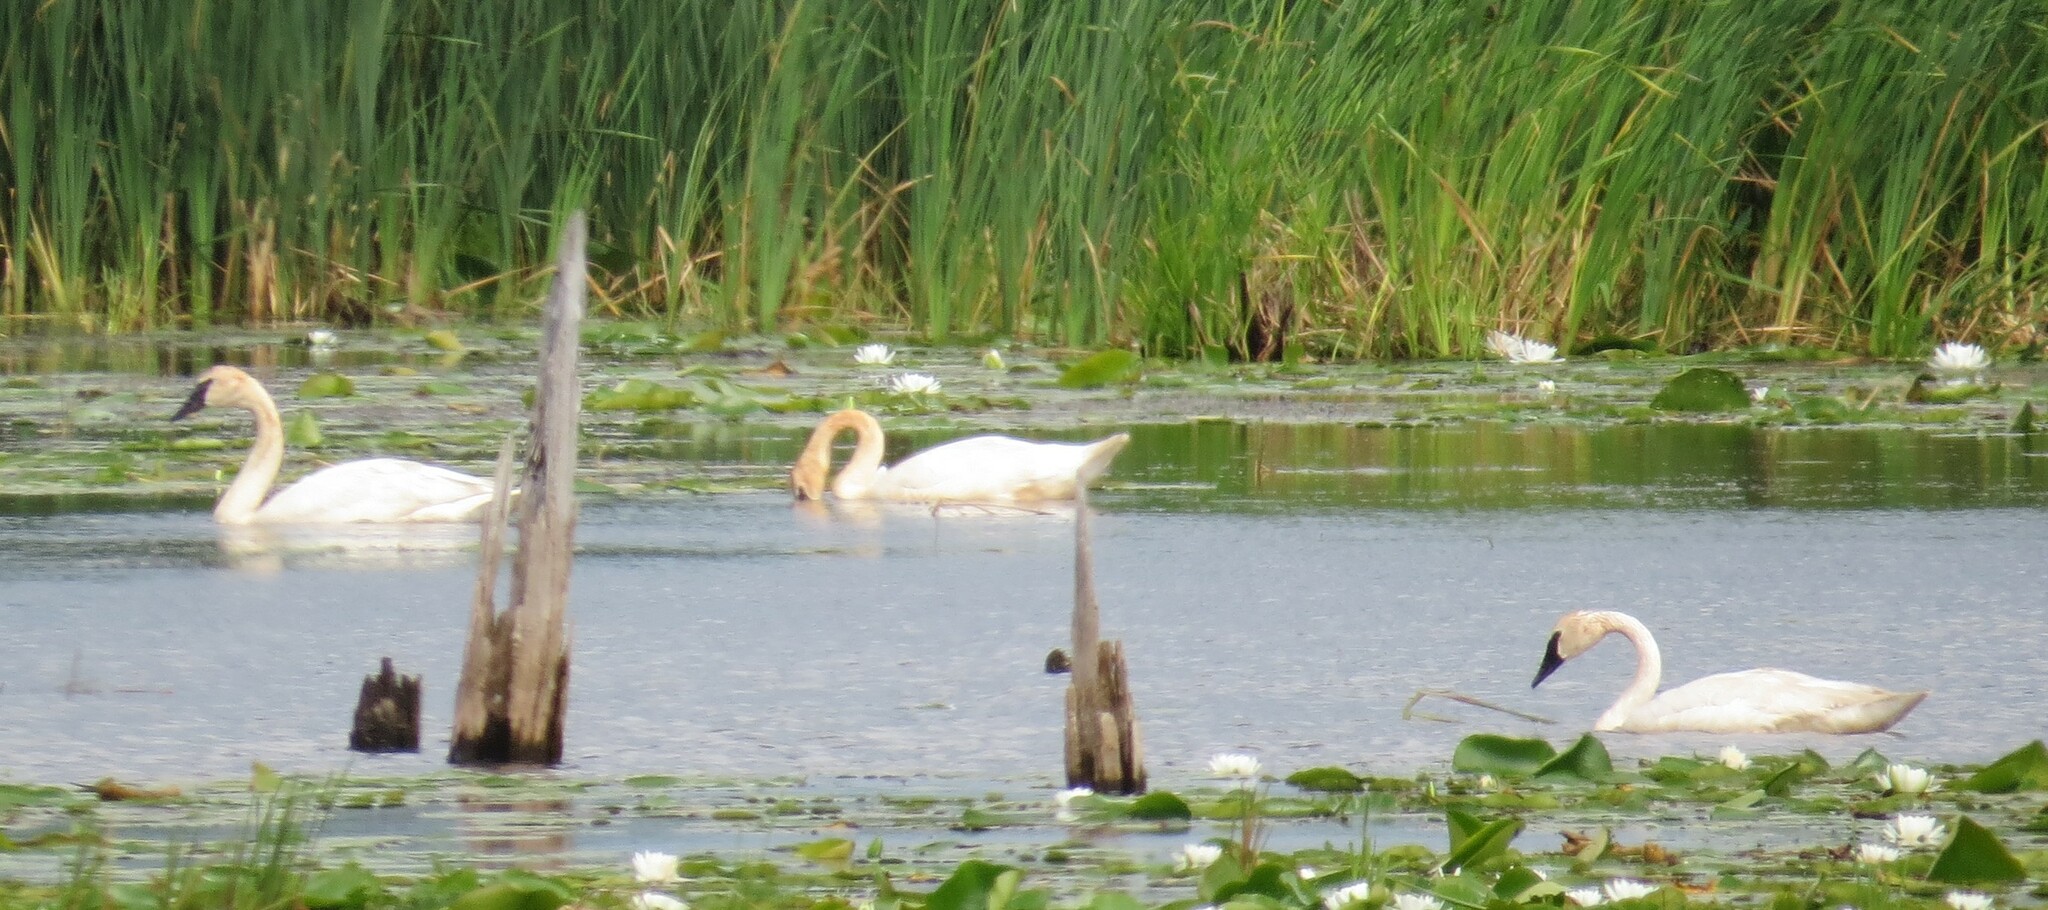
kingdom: Animalia
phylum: Chordata
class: Aves
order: Anseriformes
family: Anatidae
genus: Cygnus
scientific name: Cygnus buccinator
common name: Trumpeter swan
